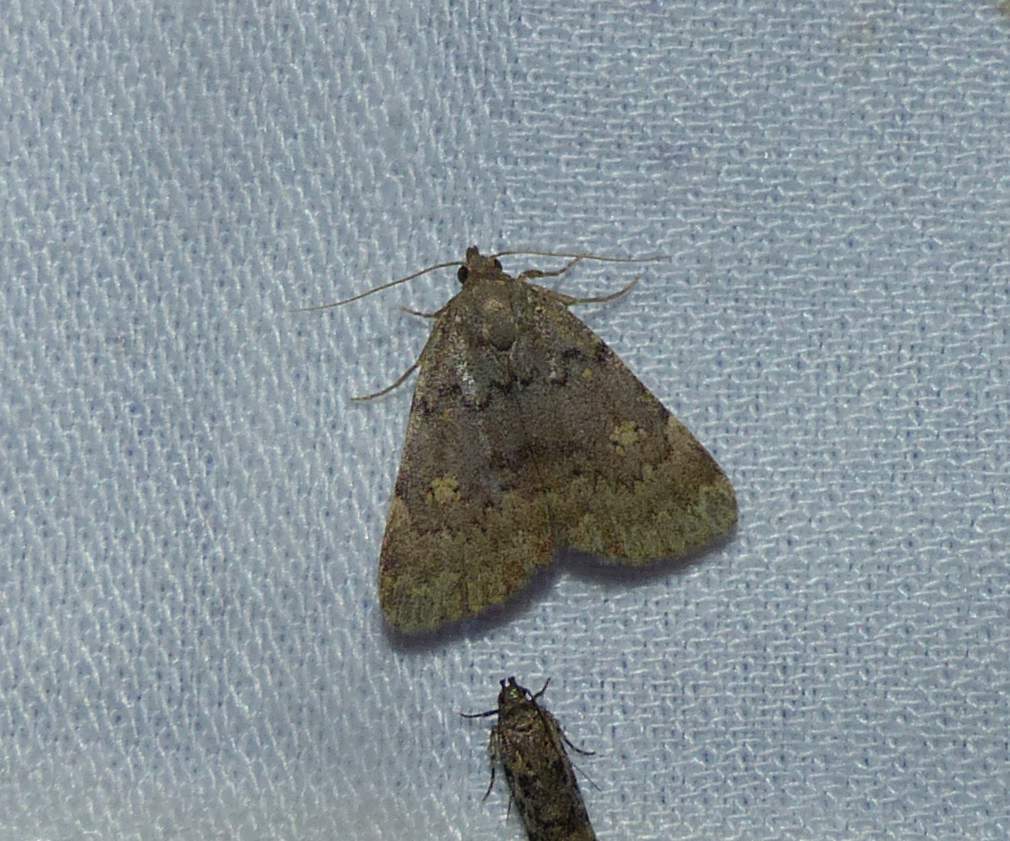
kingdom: Animalia
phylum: Arthropoda
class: Insecta
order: Lepidoptera
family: Erebidae
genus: Idia
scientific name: Idia aemula
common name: Common idia moth
